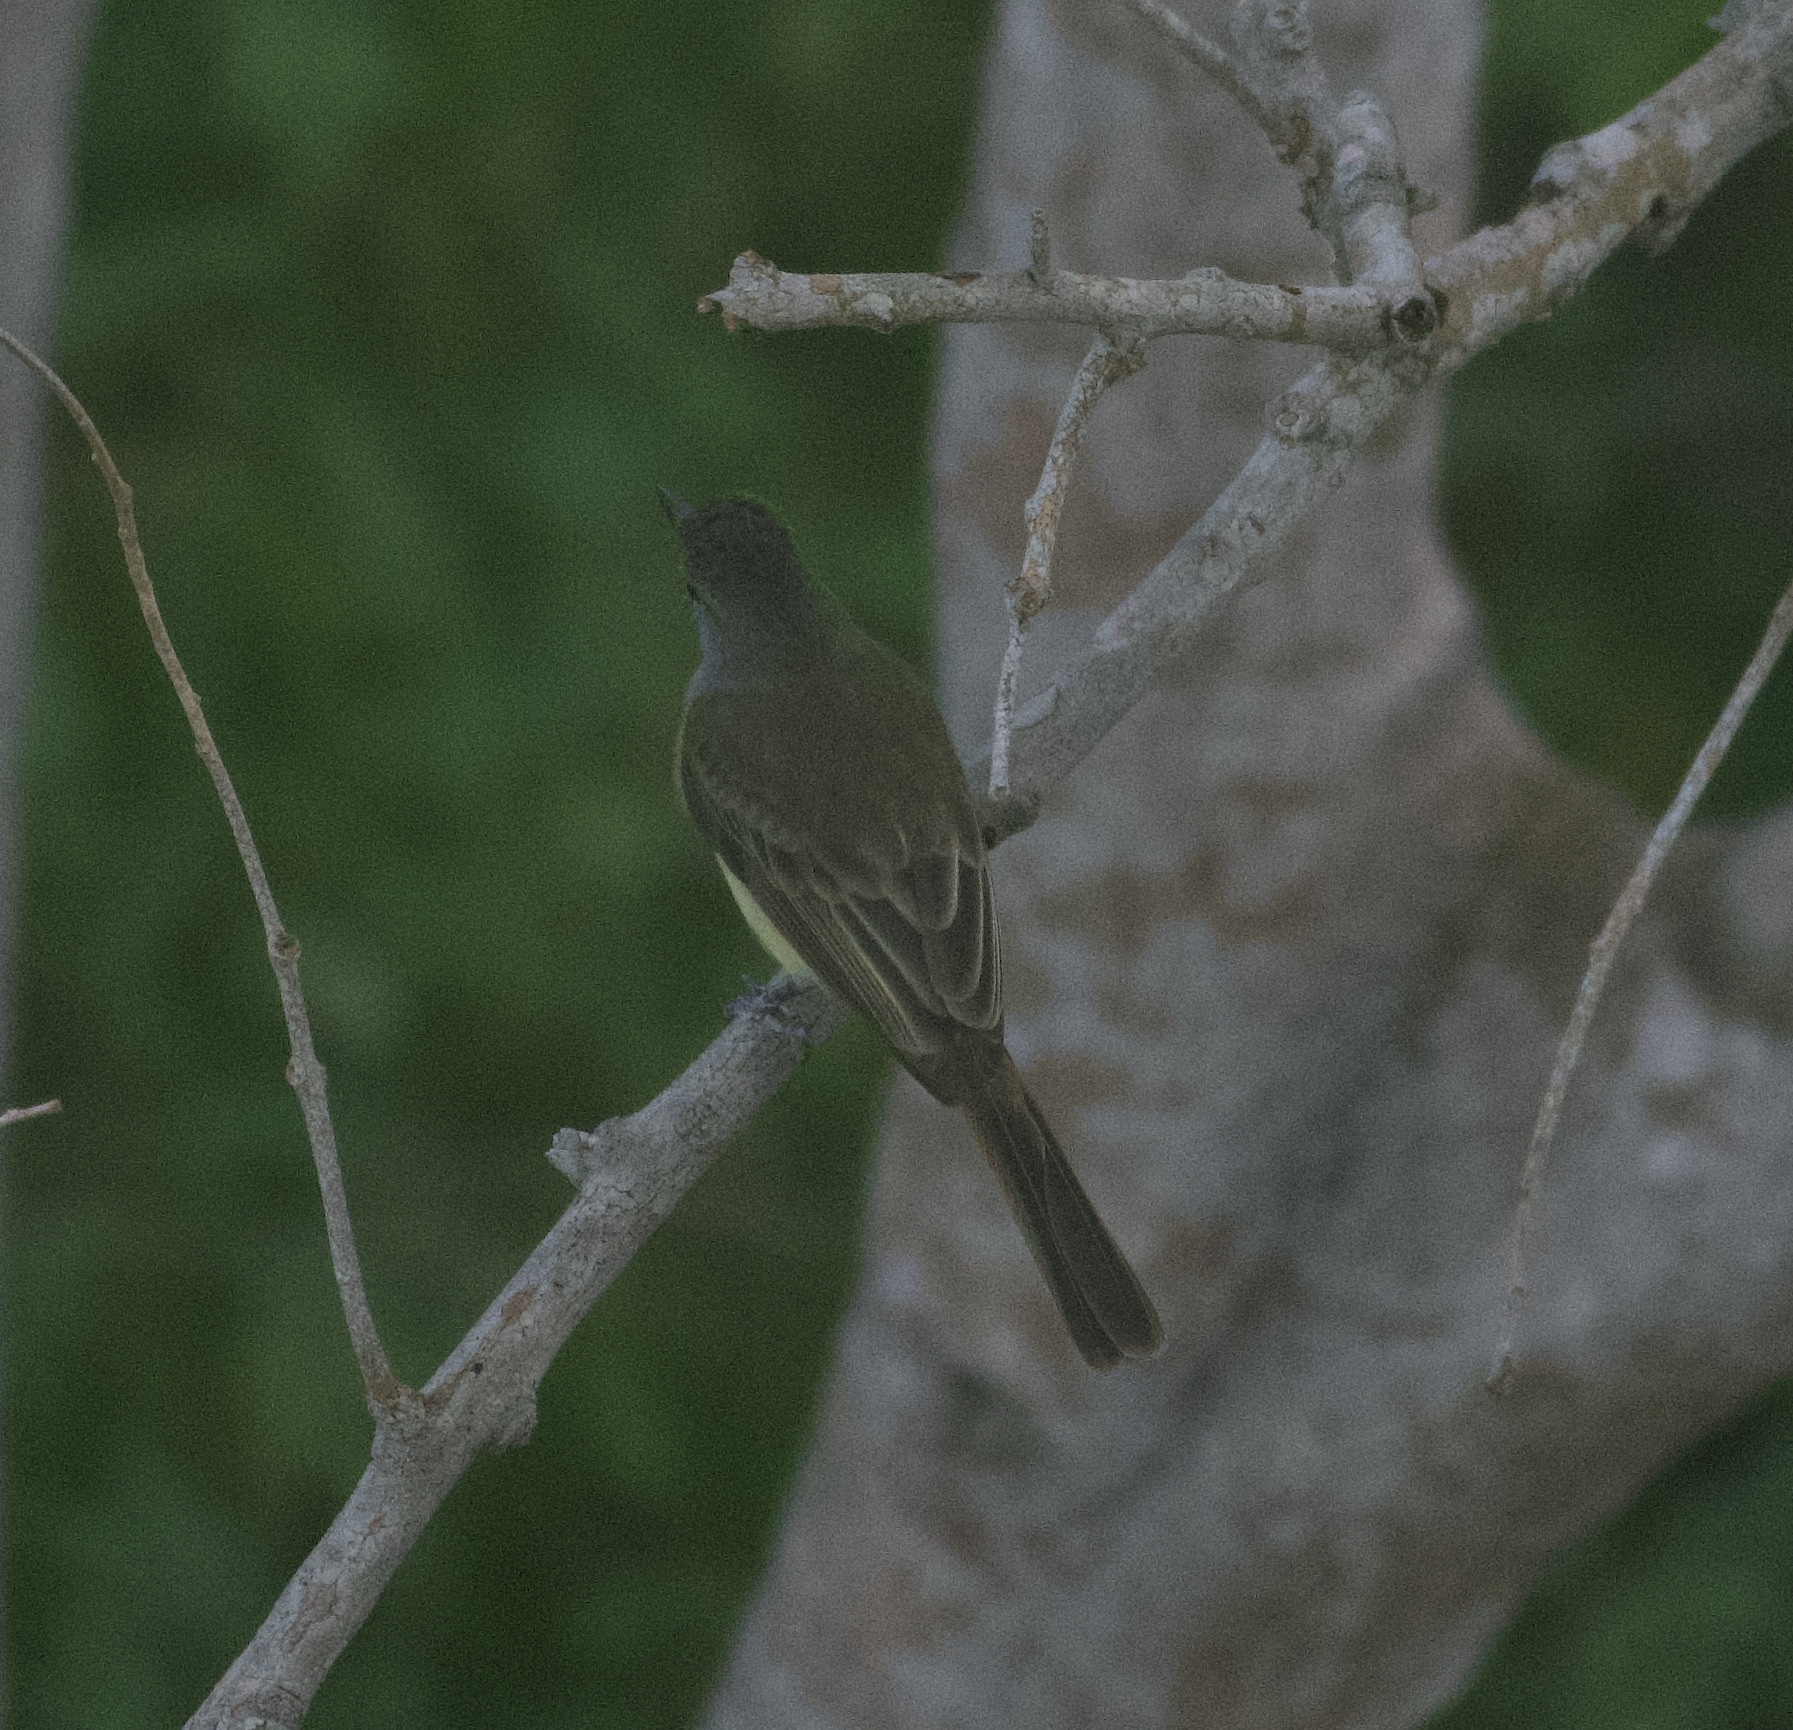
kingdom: Animalia
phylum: Chordata
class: Aves
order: Passeriformes
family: Tyrannidae
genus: Myiarchus
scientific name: Myiarchus
